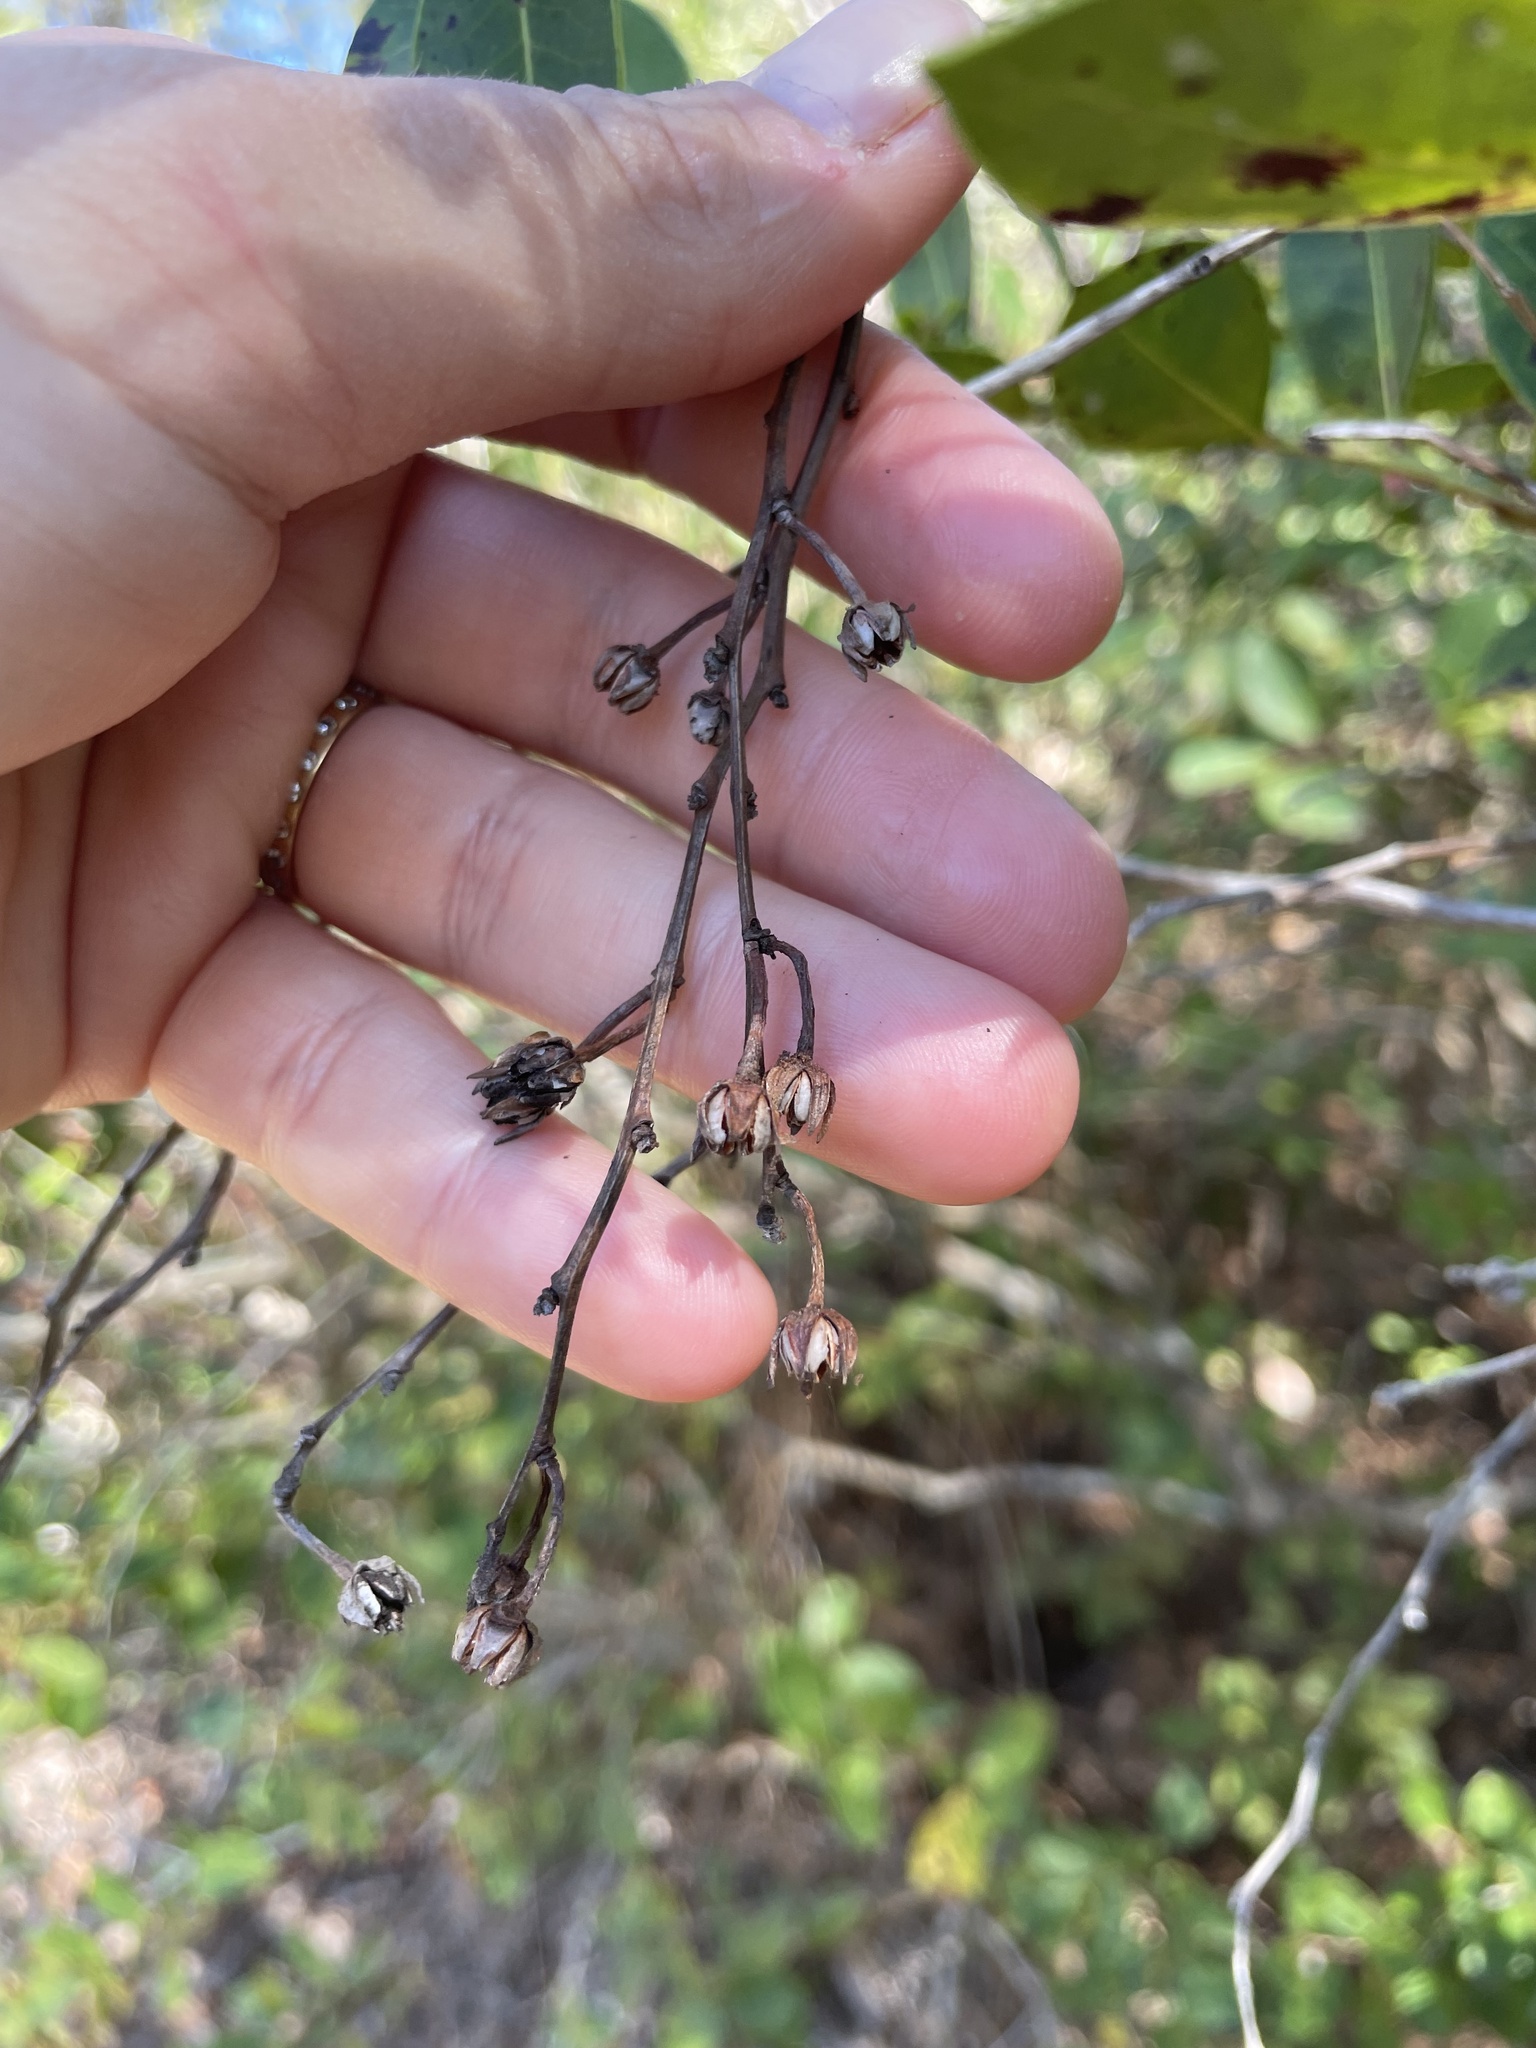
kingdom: Plantae
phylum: Tracheophyta
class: Magnoliopsida
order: Ericales
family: Ericaceae
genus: Lyonia
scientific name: Lyonia lucida
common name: Fetterbush
